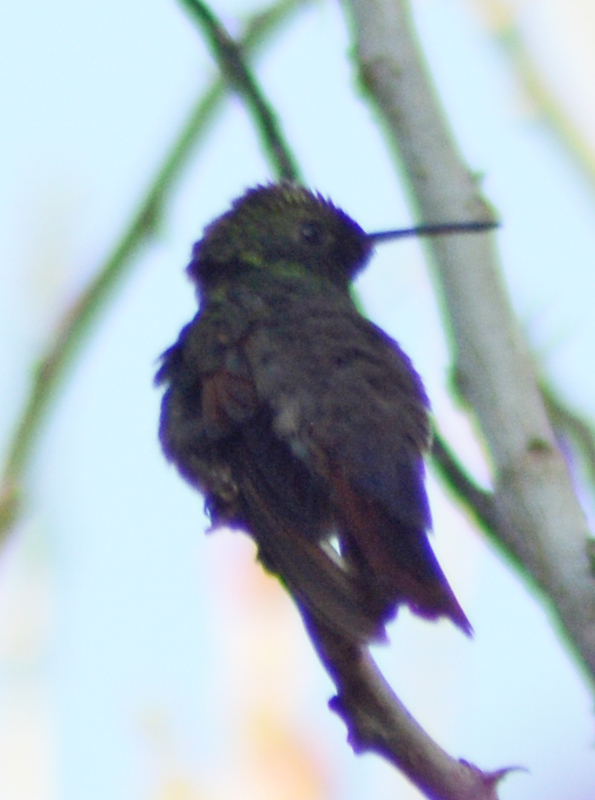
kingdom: Animalia
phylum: Chordata
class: Aves
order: Apodiformes
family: Trochilidae
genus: Saucerottia
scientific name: Saucerottia beryllina
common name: Berylline hummingbird
